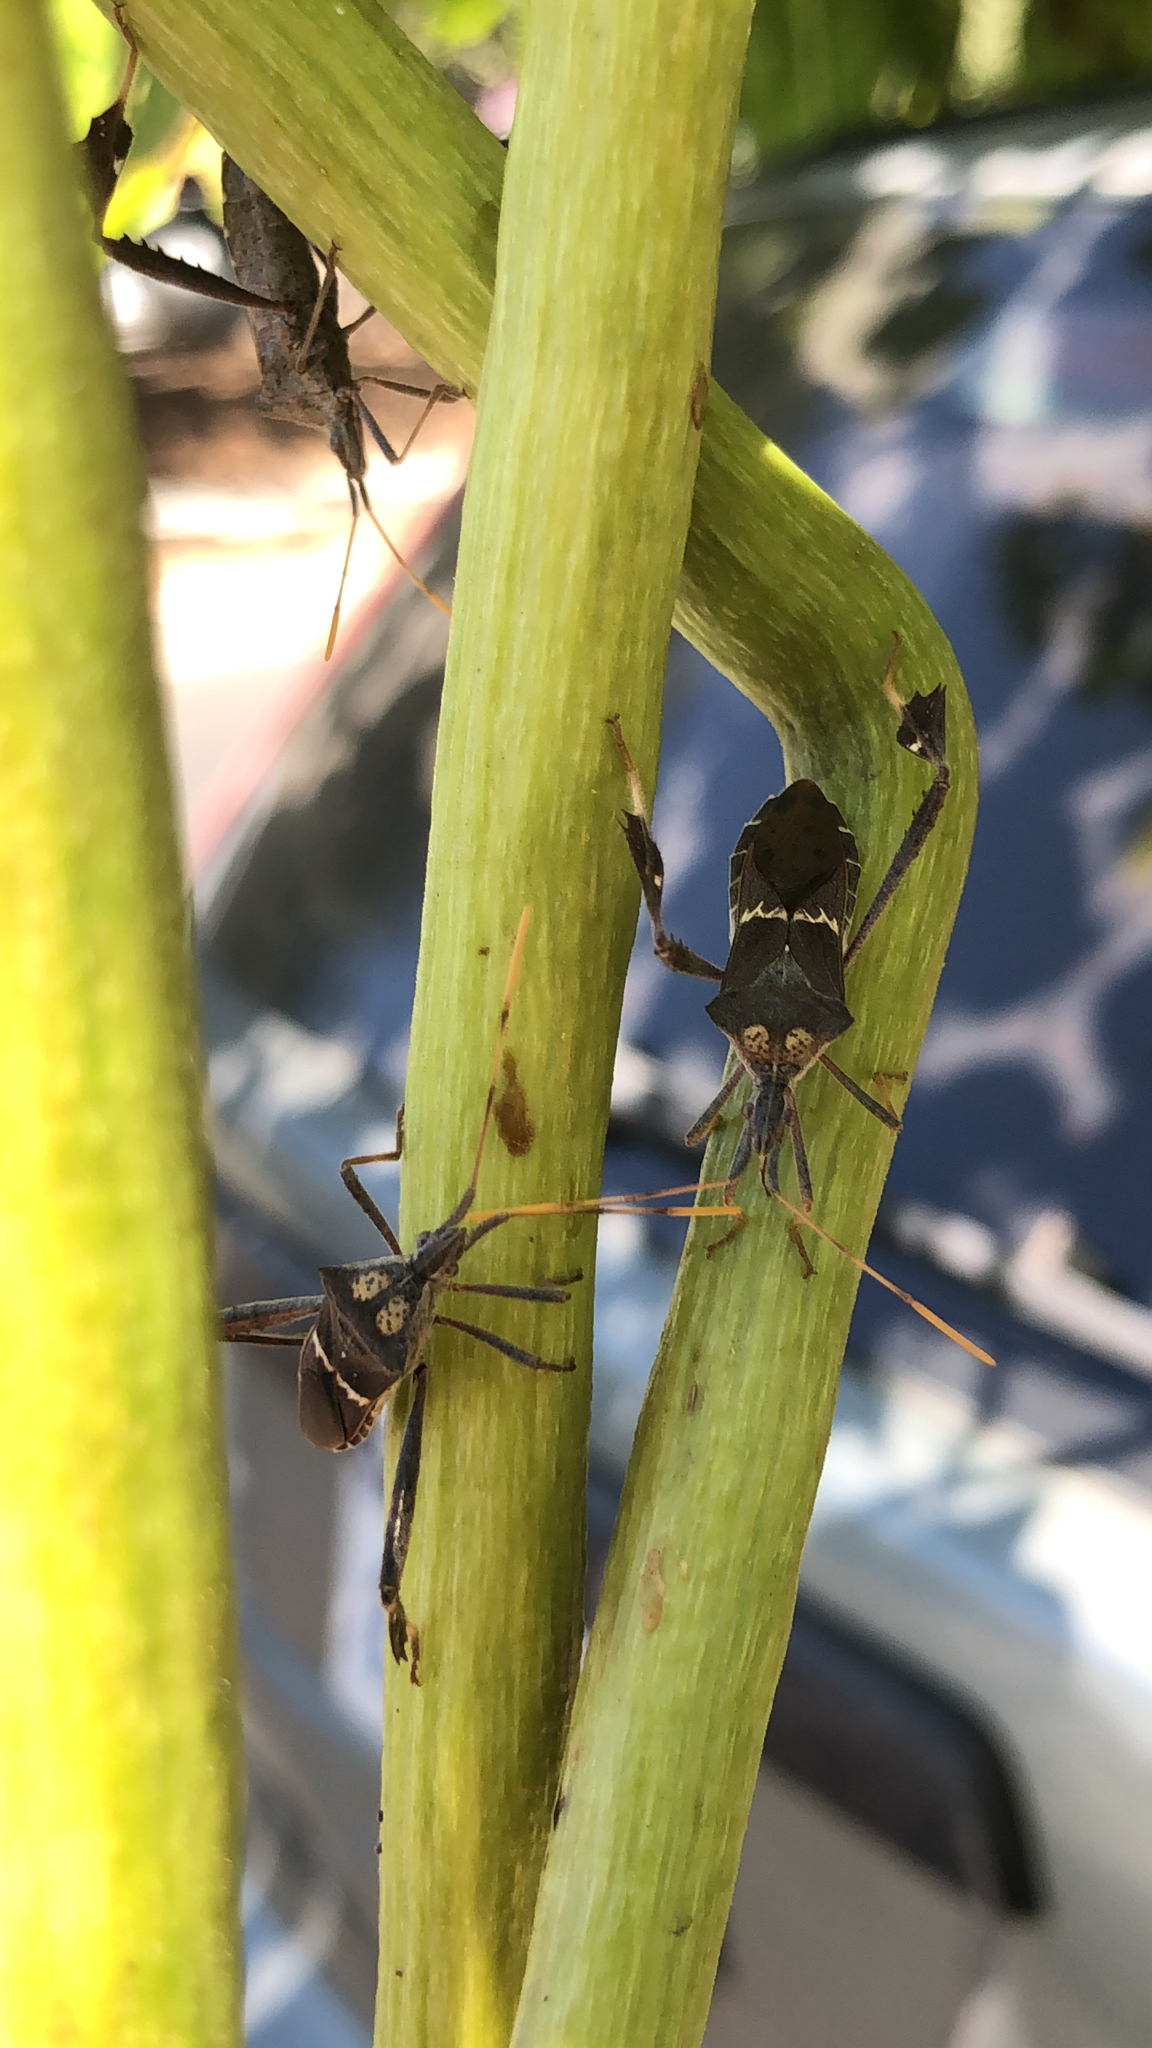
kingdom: Animalia
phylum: Arthropoda
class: Insecta
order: Hemiptera
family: Coreidae
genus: Leptoglossus
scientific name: Leptoglossus zonatus
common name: Large-legged bug
